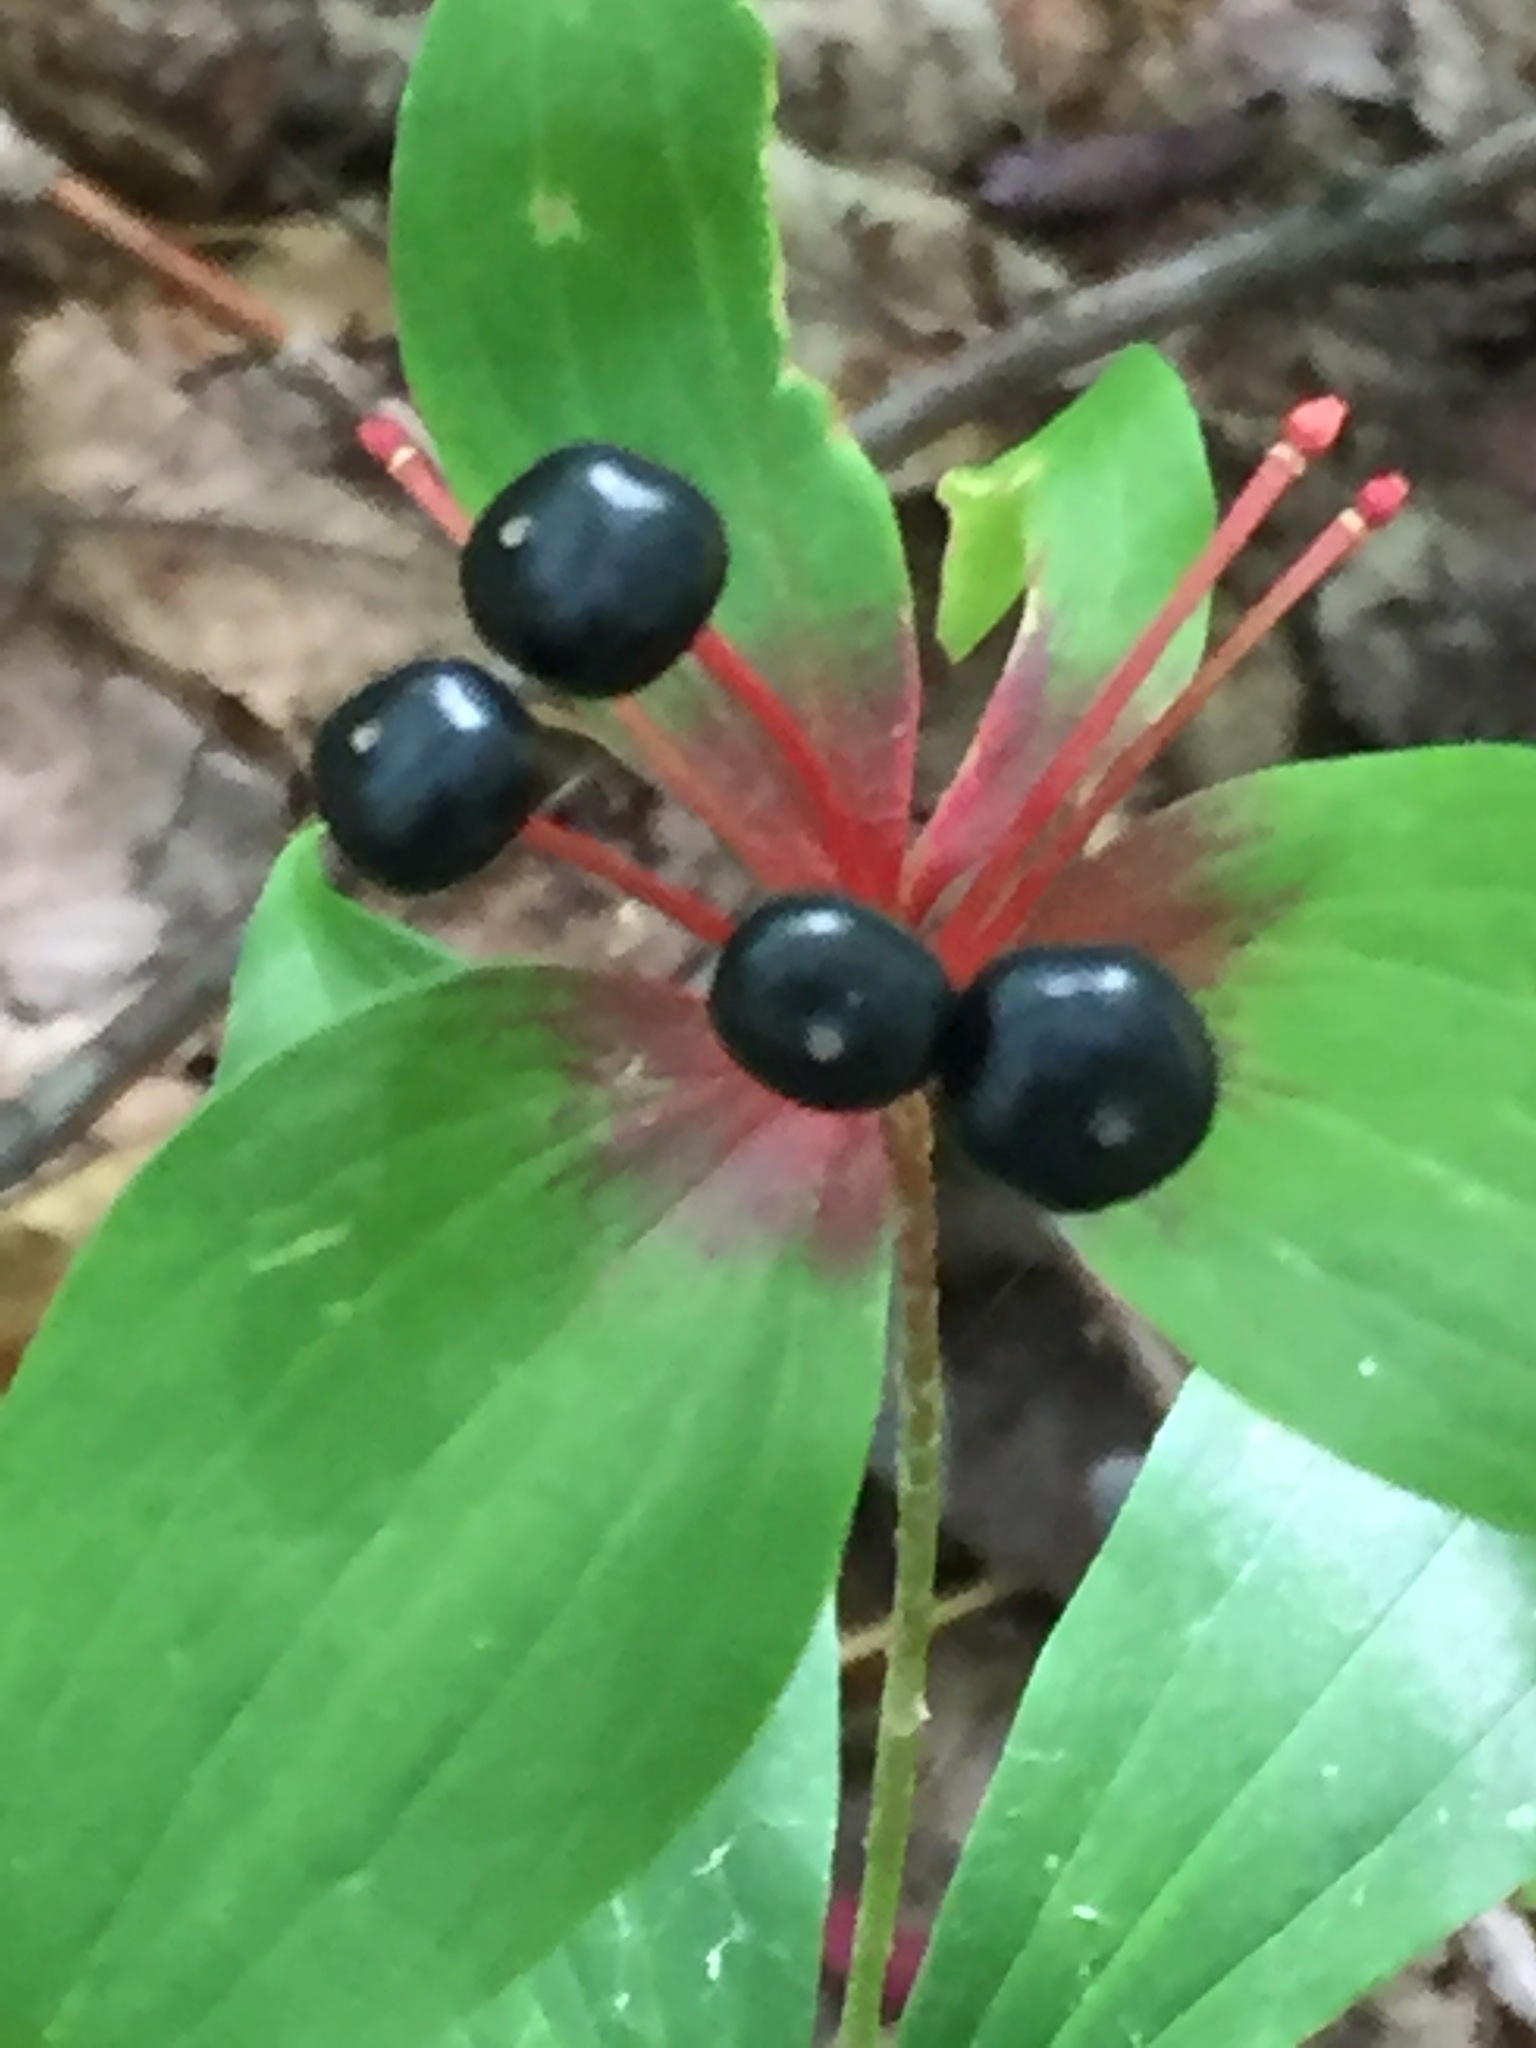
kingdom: Plantae
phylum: Tracheophyta
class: Liliopsida
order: Liliales
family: Liliaceae
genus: Medeola
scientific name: Medeola virginiana
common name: Indian cucumber-root
